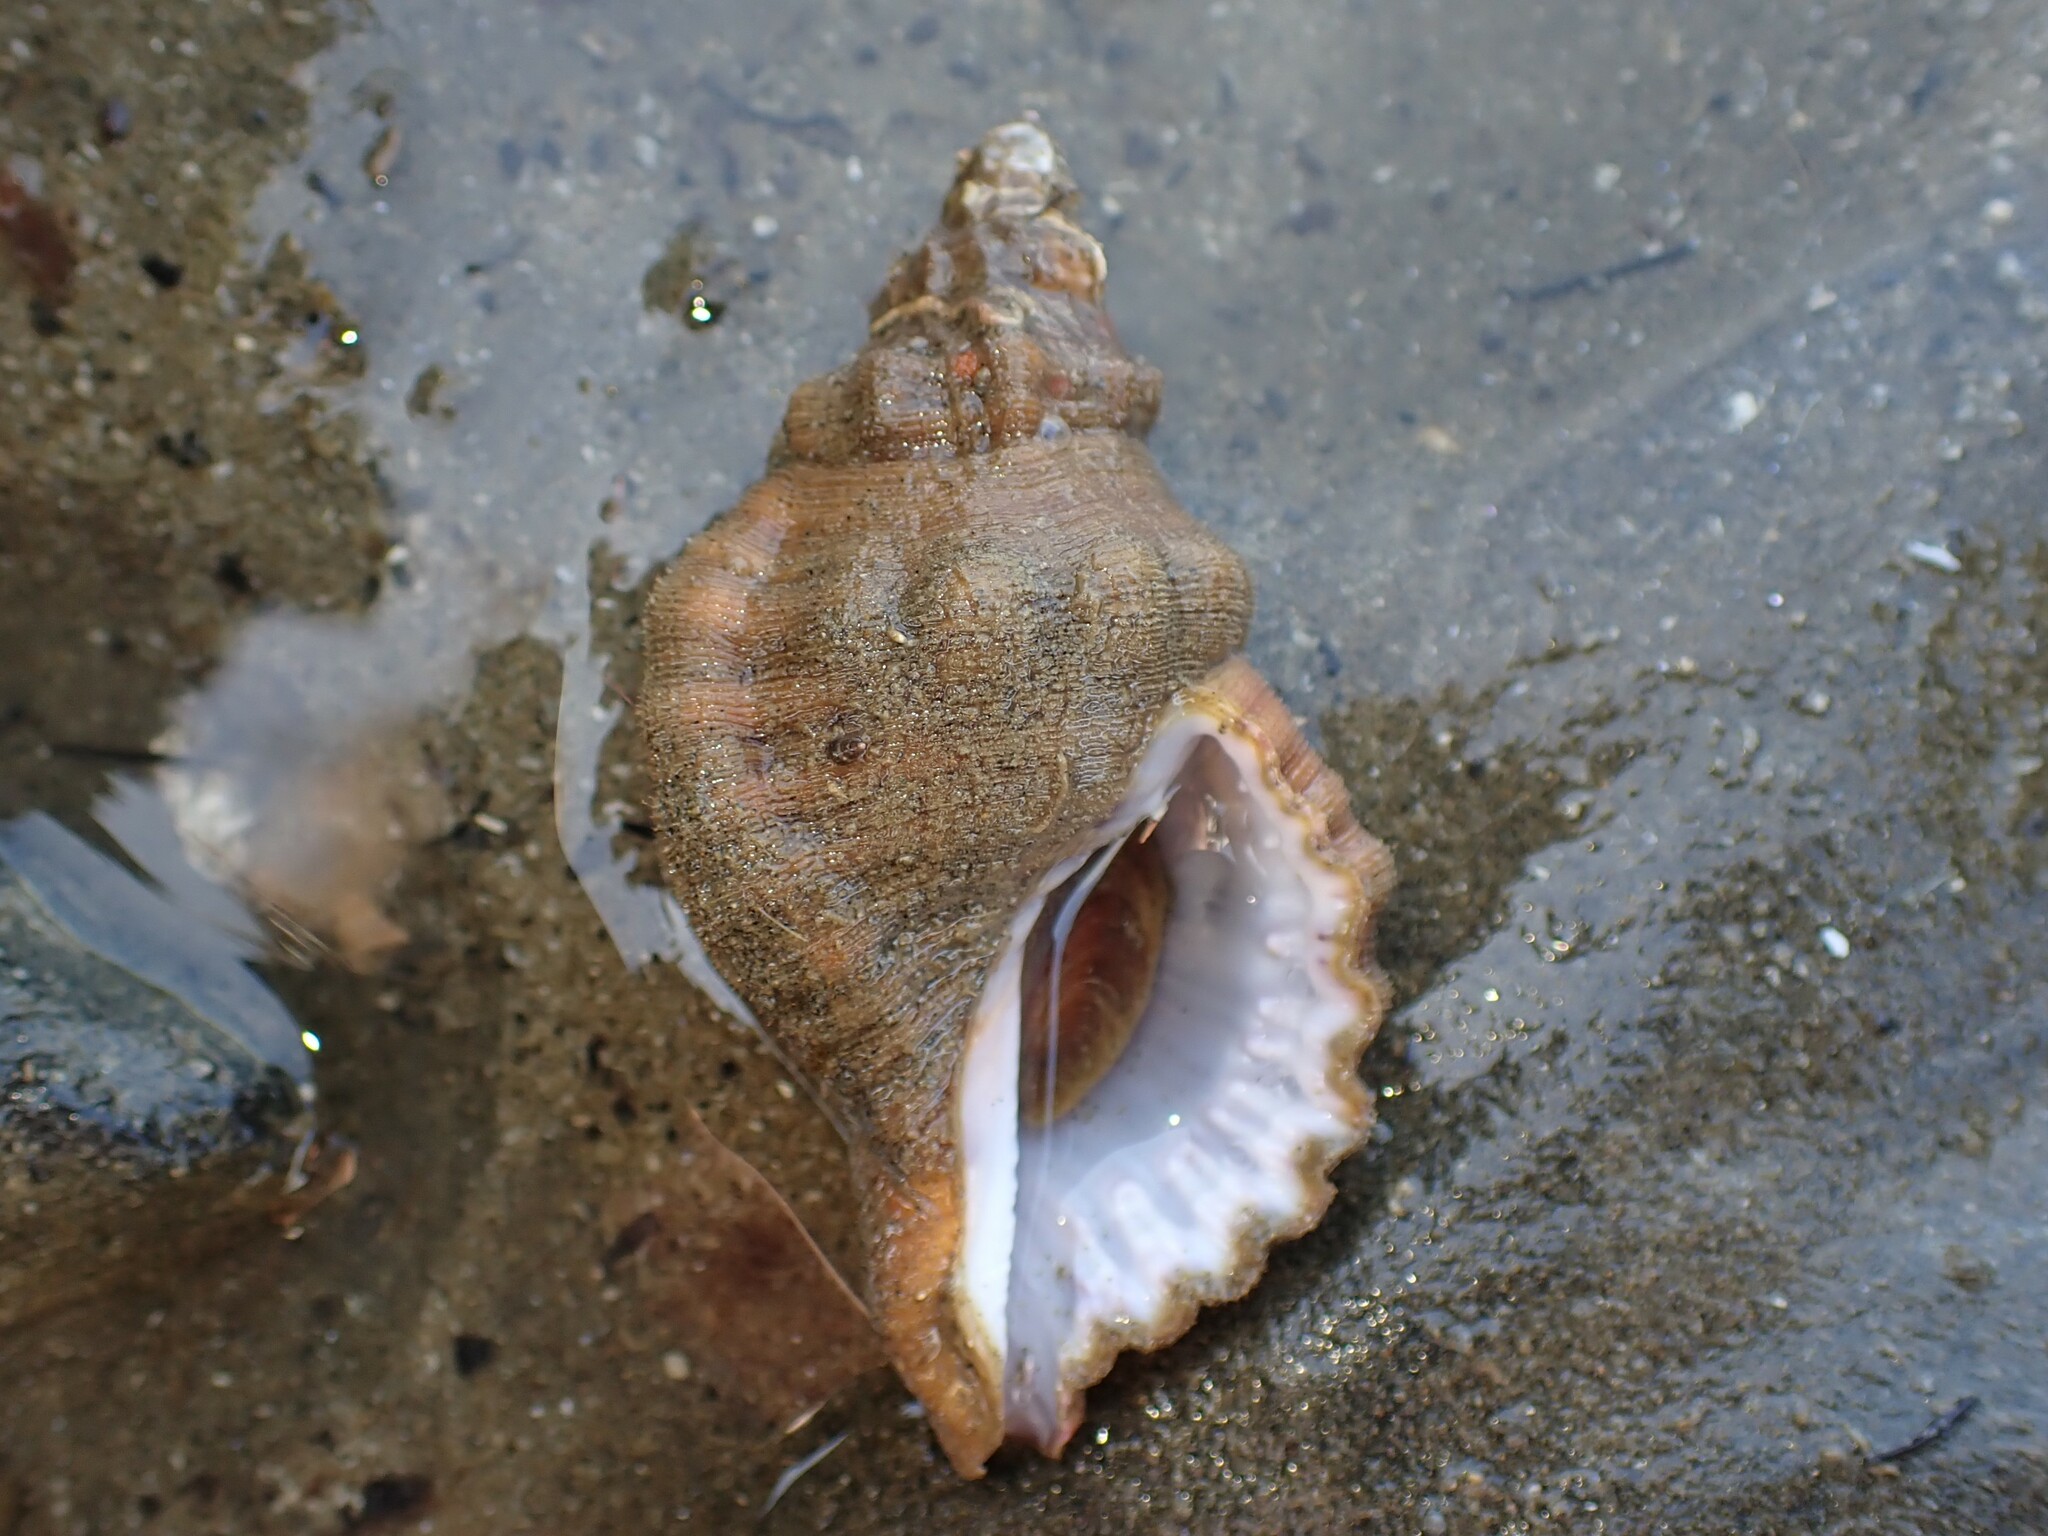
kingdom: Animalia
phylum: Mollusca
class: Gastropoda
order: Littorinimorpha
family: Cymatiidae
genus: Cabestana
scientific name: Cabestana spengleri
